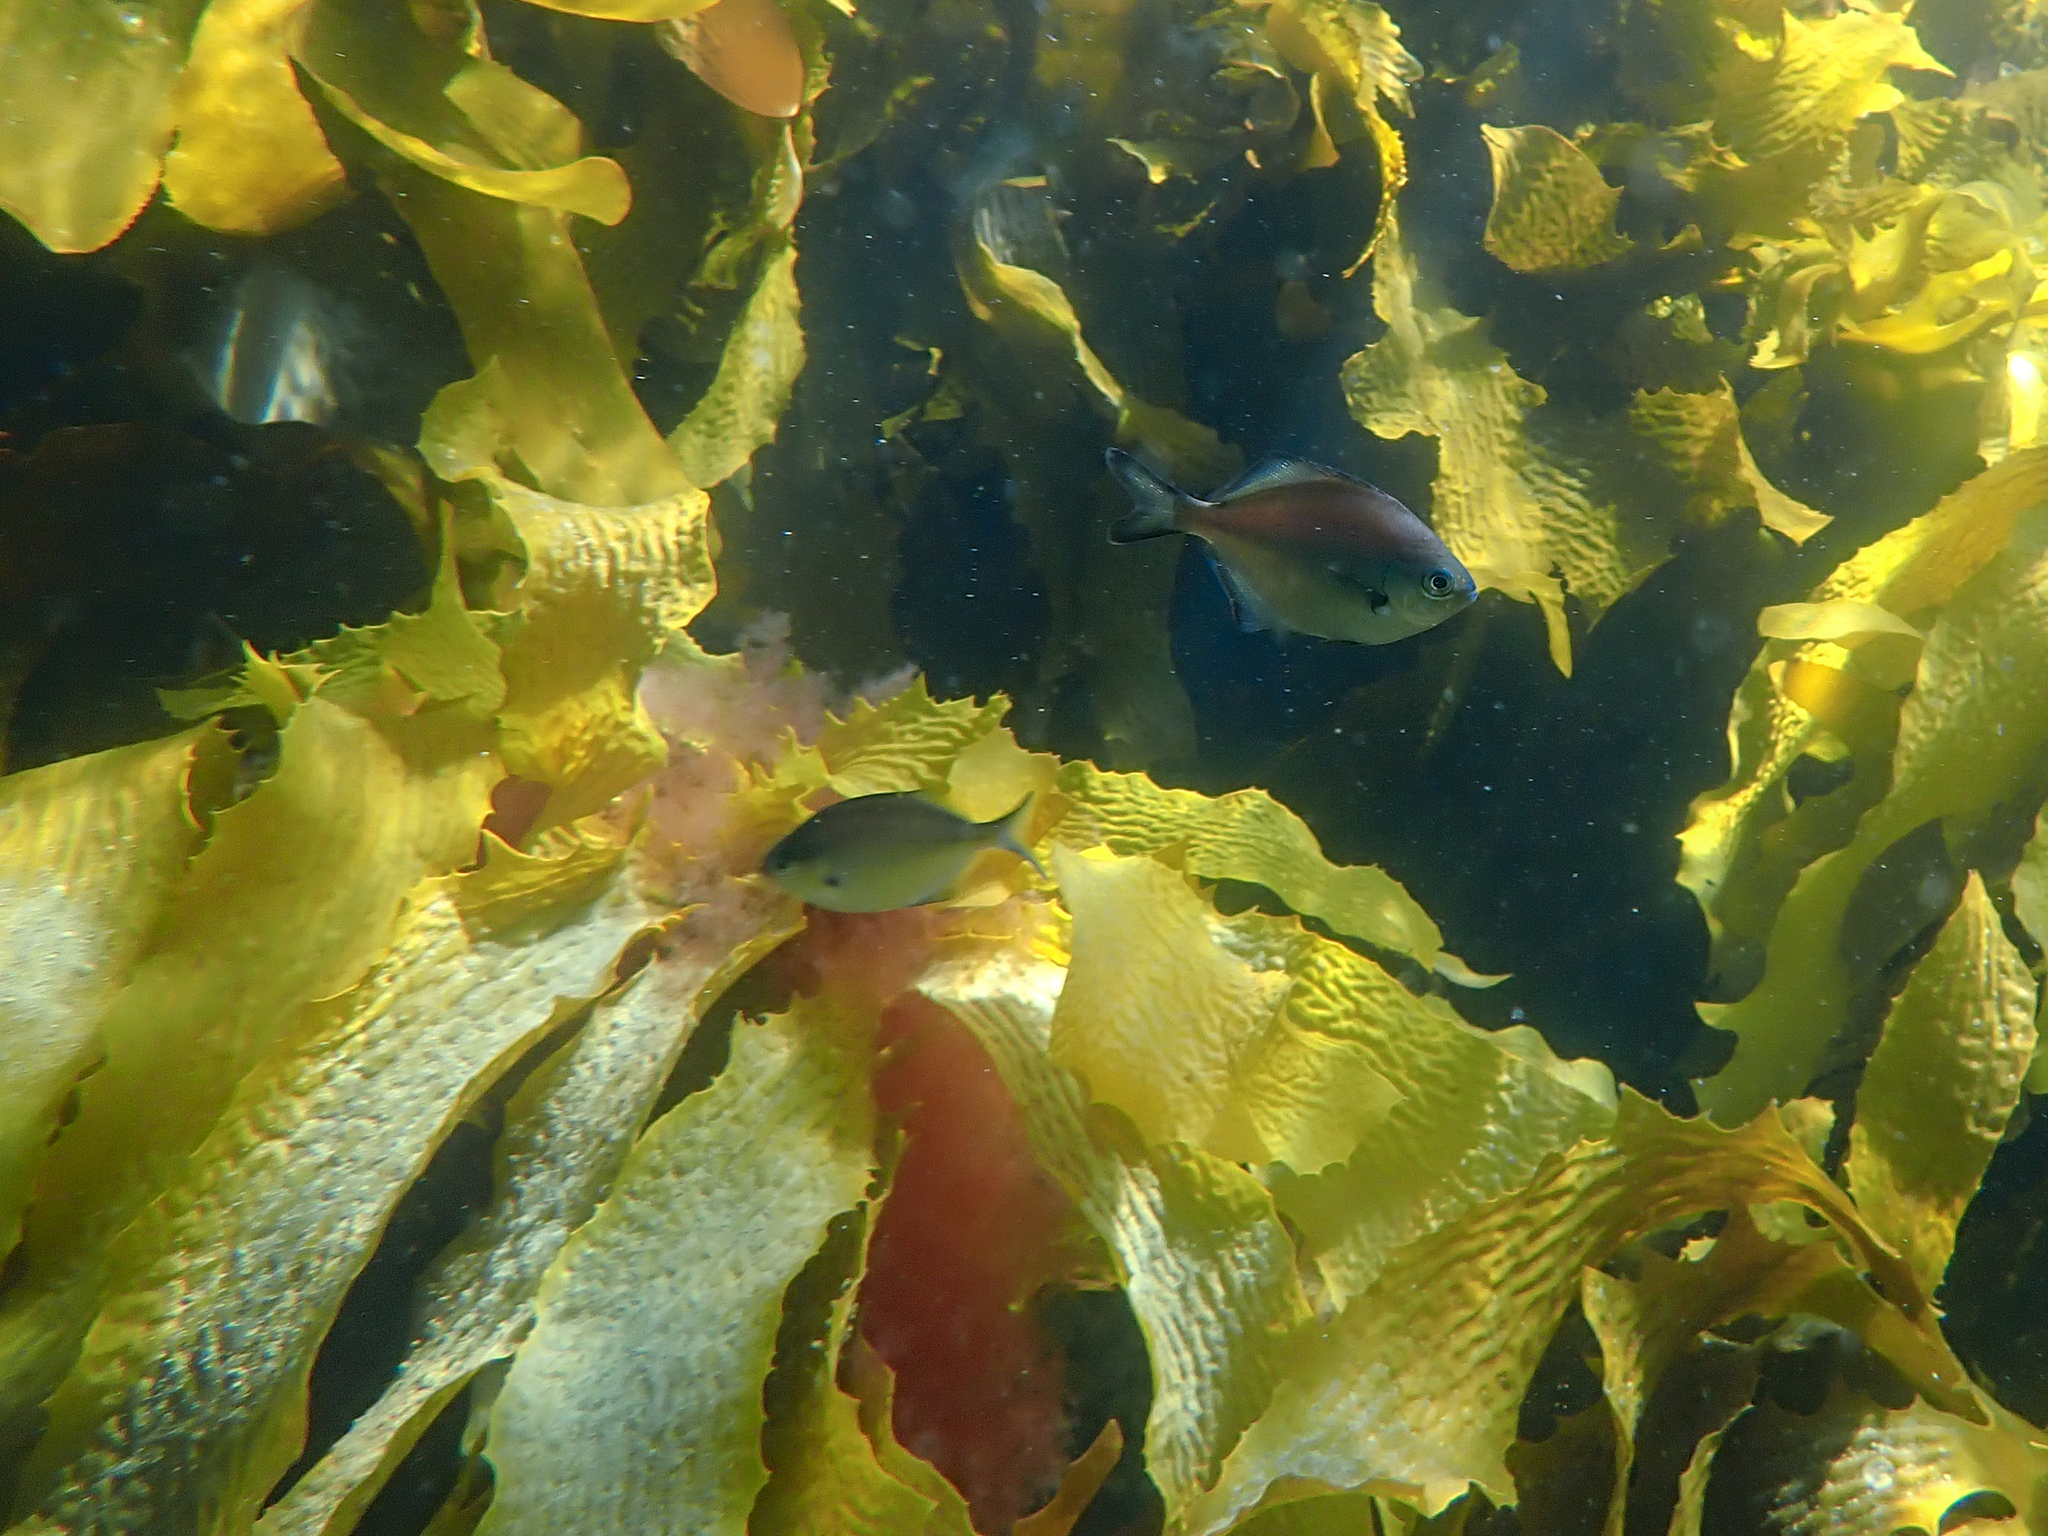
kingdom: Animalia
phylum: Chordata
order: Perciformes
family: Kyphosidae
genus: Scorpis
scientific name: Scorpis lineolata
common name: Sweep
